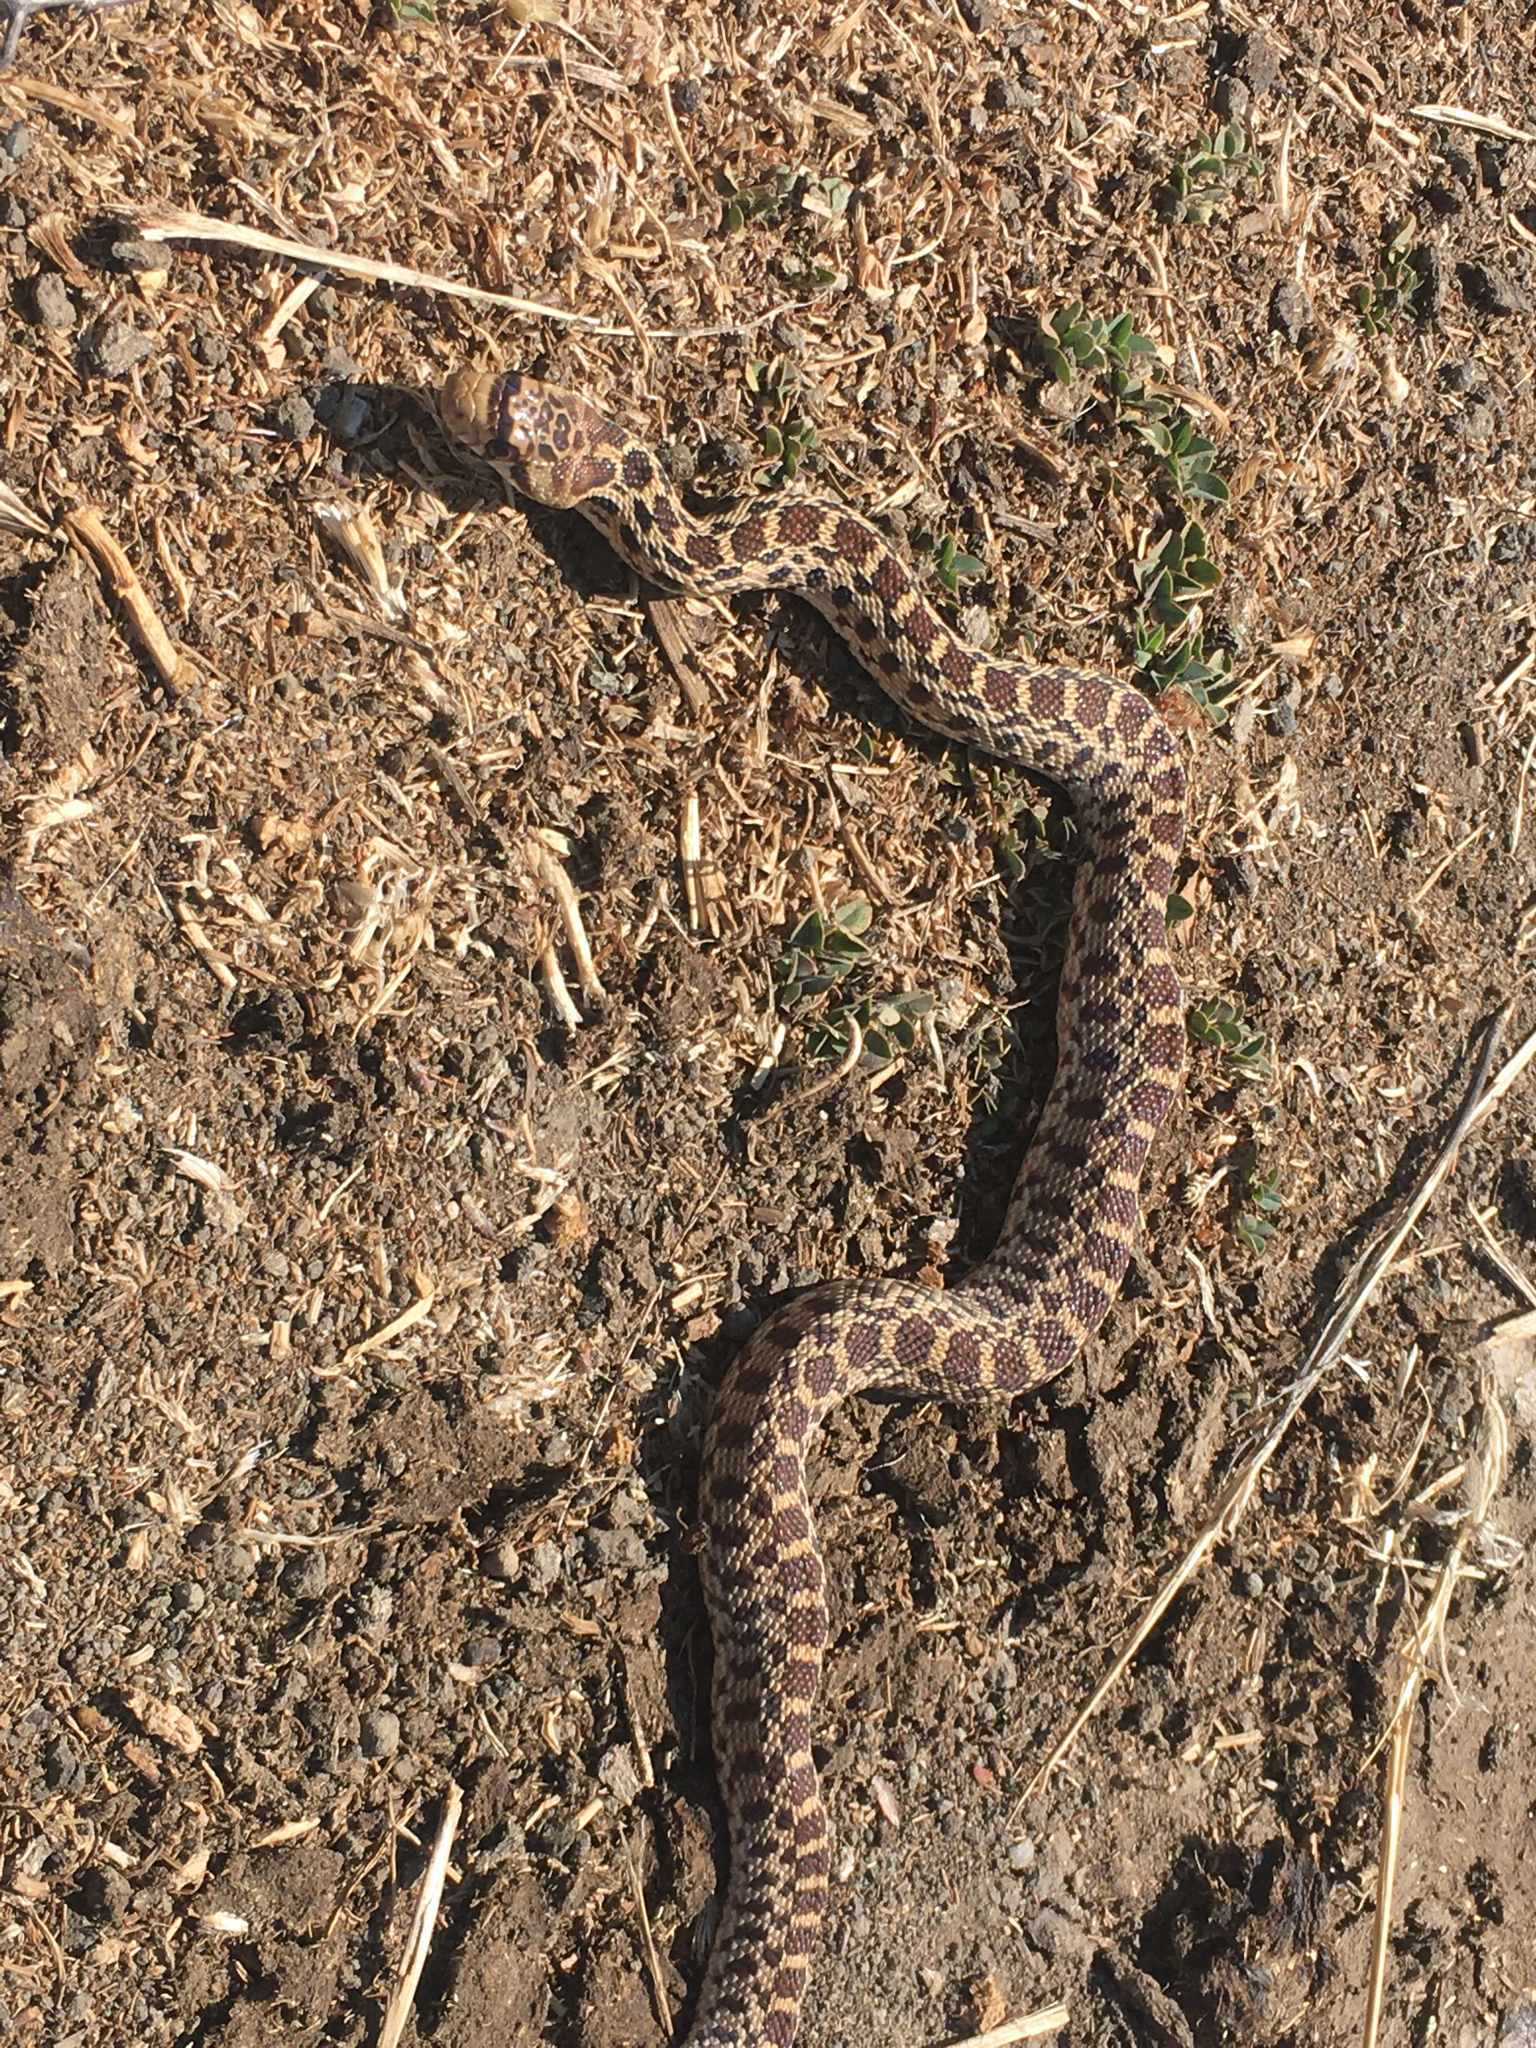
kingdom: Animalia
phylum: Chordata
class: Squamata
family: Colubridae
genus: Pituophis
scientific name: Pituophis catenifer
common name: Gopher snake
